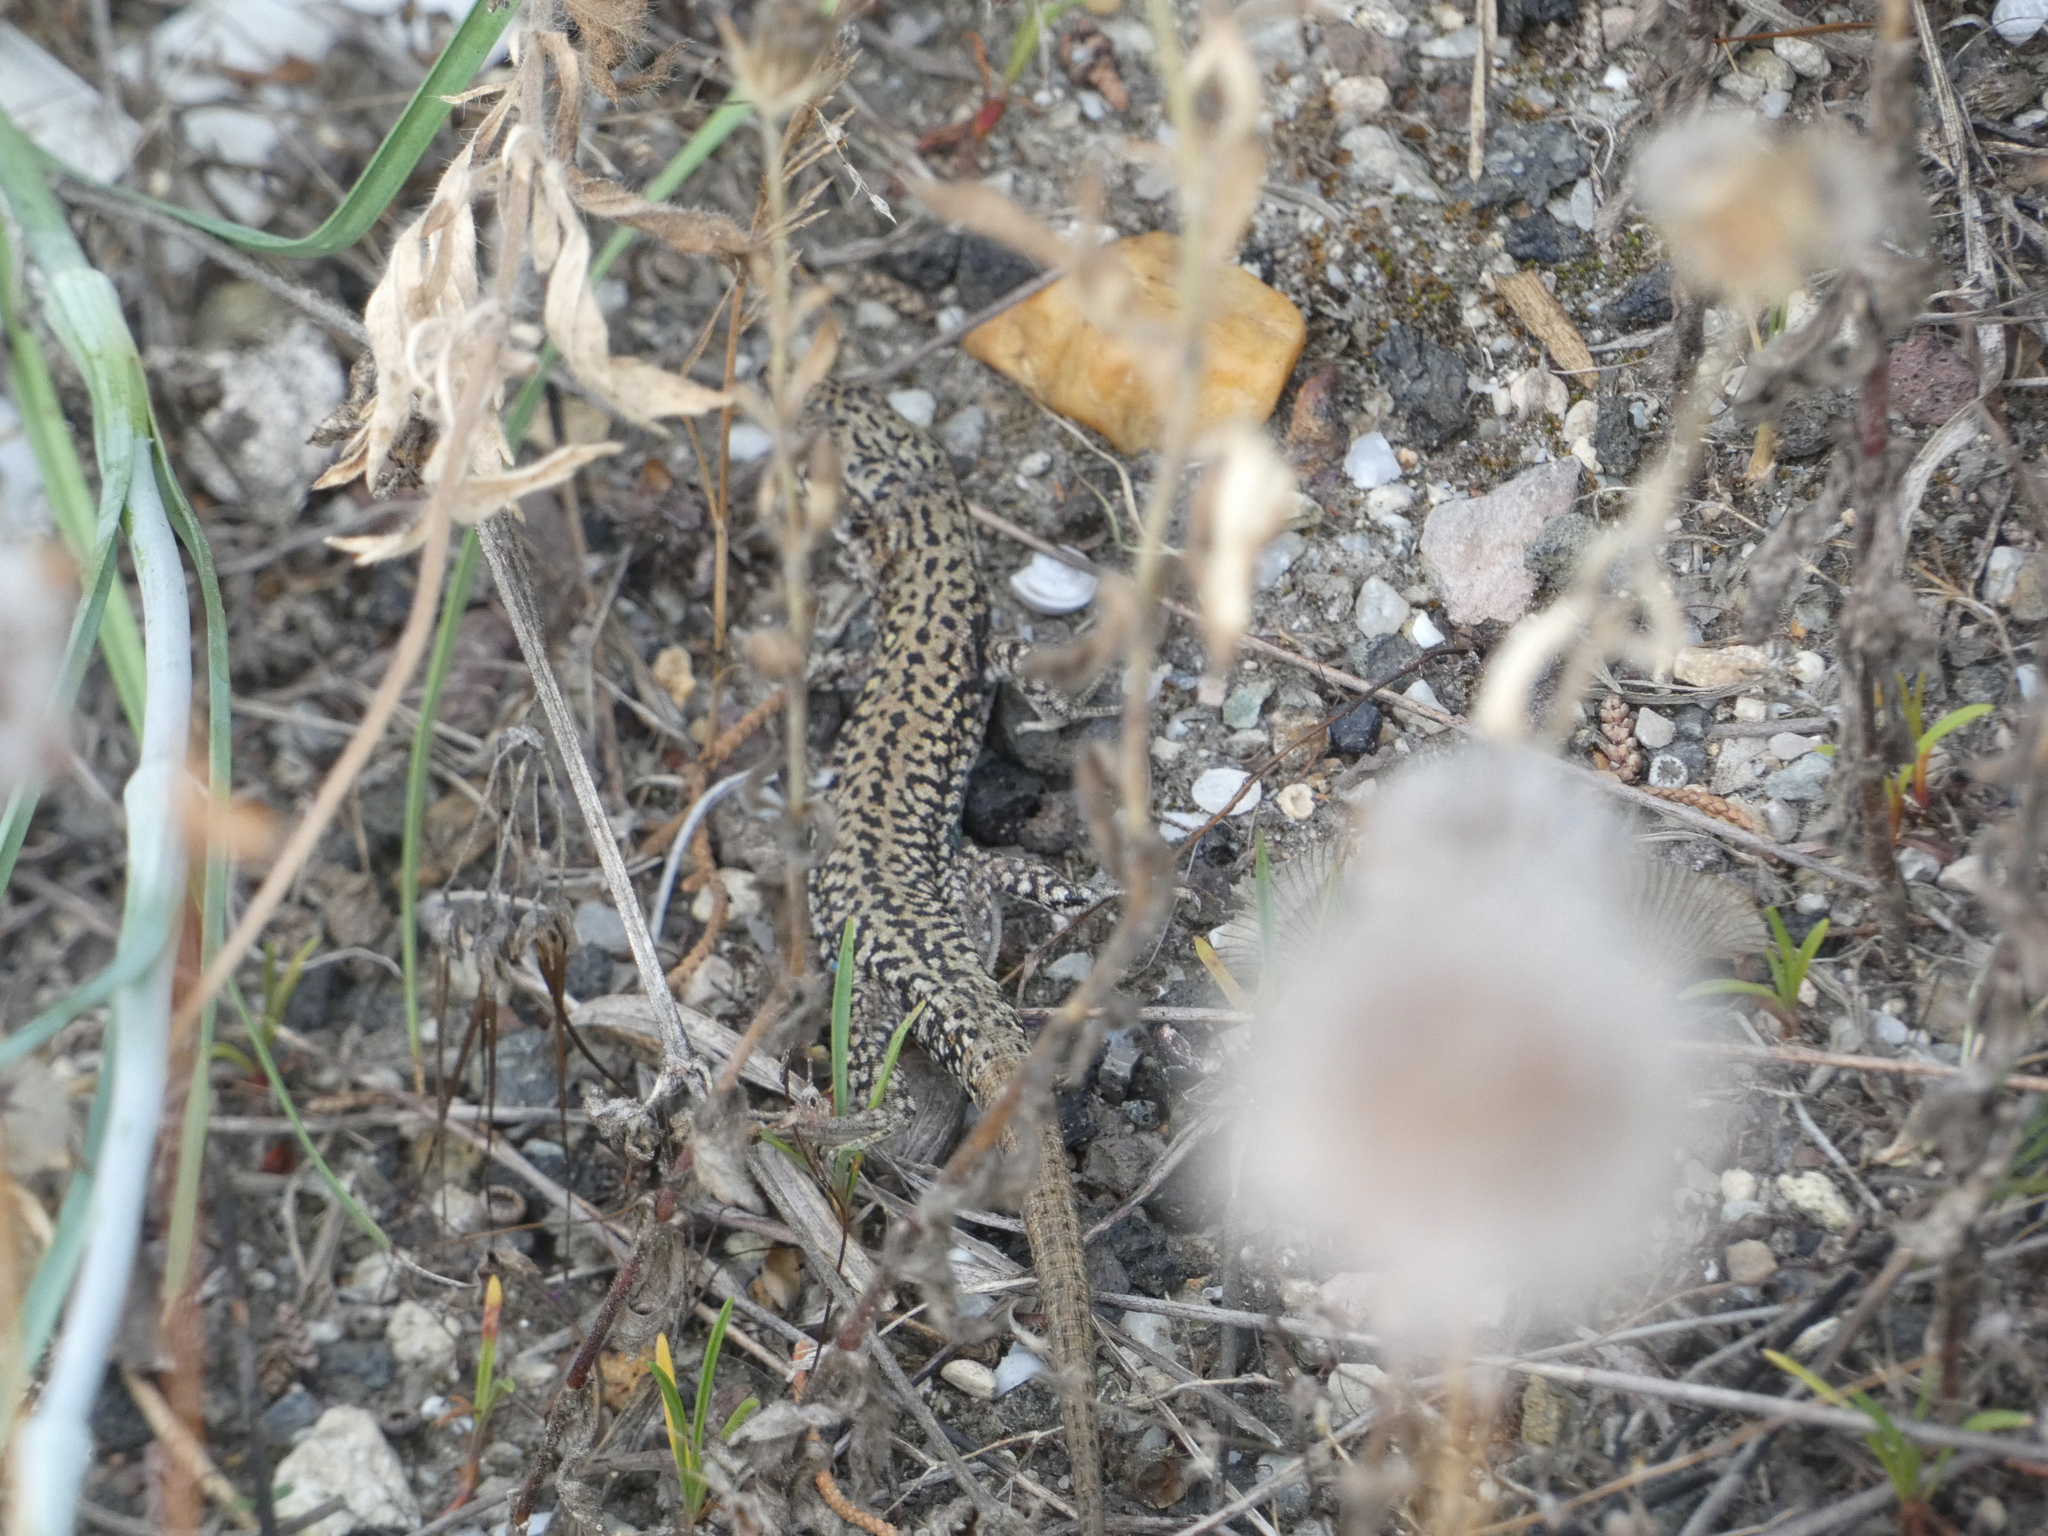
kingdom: Animalia
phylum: Chordata
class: Squamata
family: Lacertidae
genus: Podarcis
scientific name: Podarcis muralis
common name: Common wall lizard
